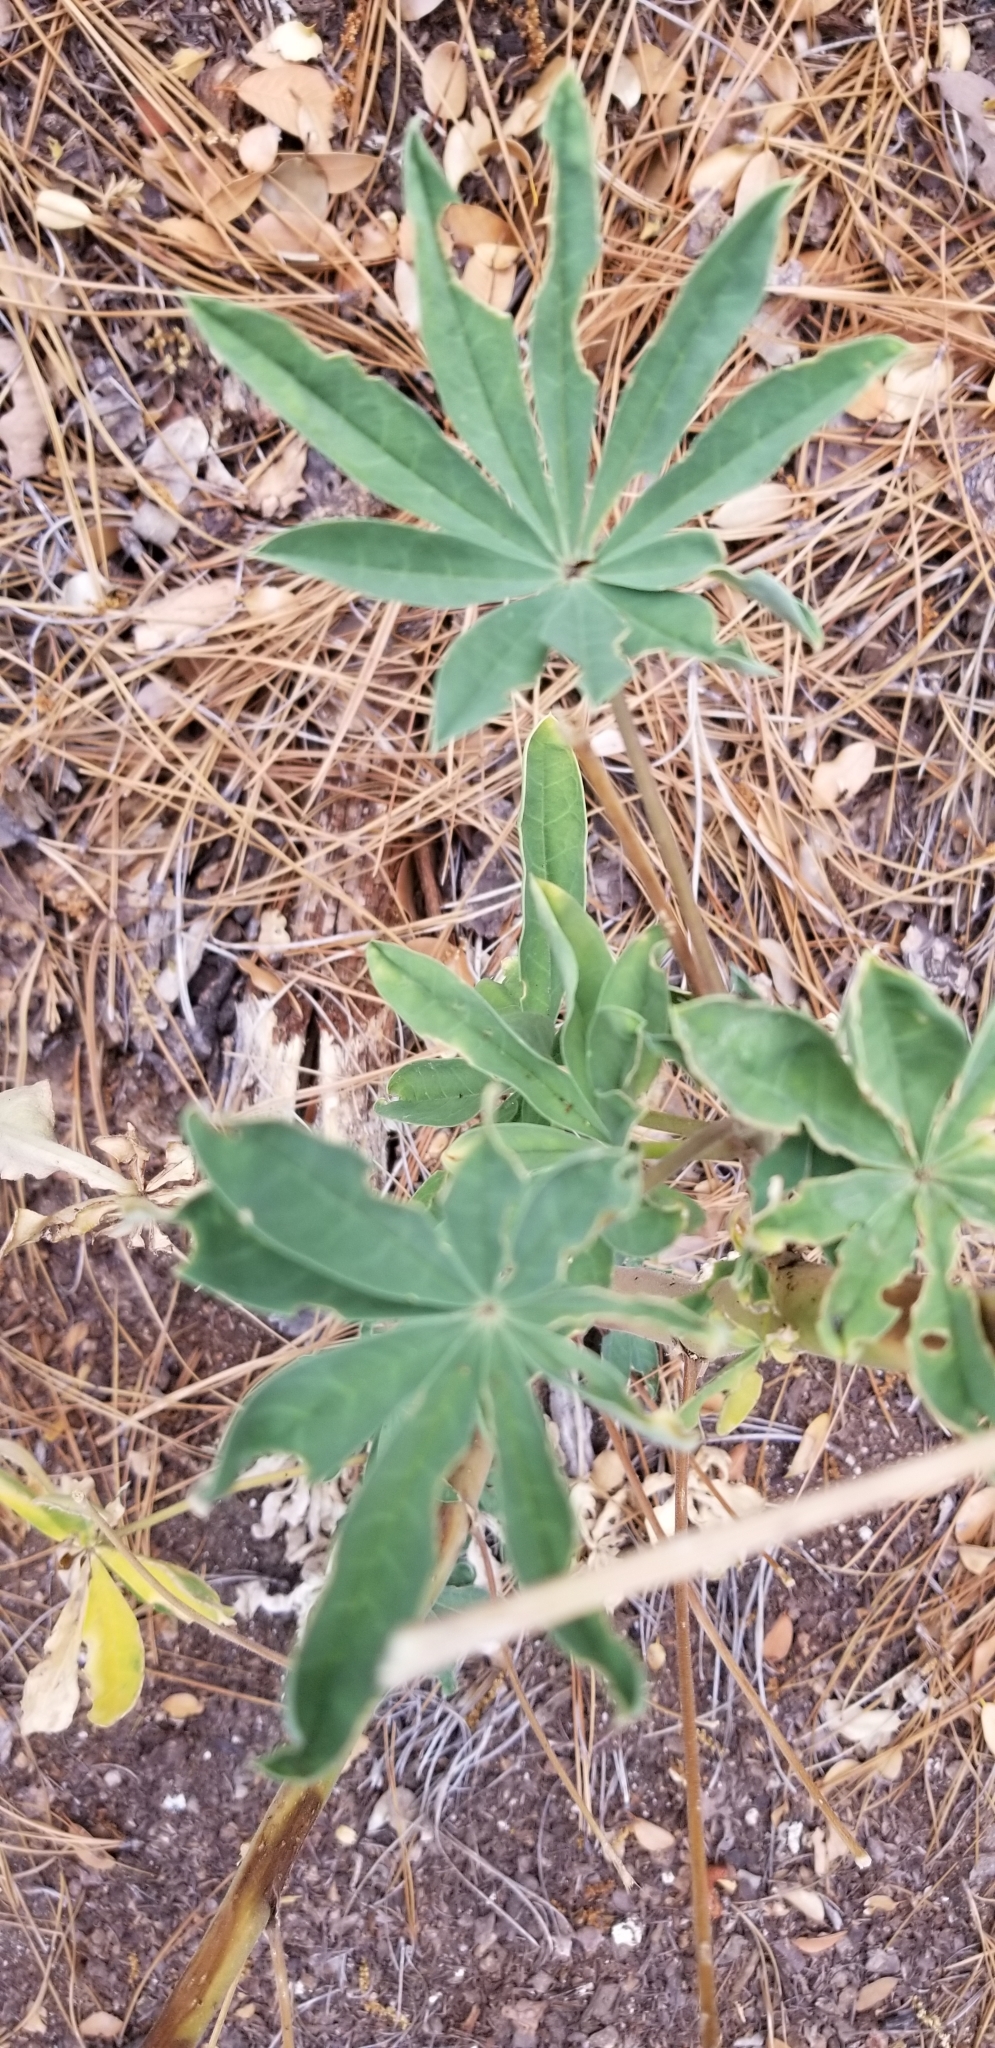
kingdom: Plantae
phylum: Tracheophyta
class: Magnoliopsida
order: Fabales
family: Fabaceae
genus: Lupinus
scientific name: Lupinus latifolius
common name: Broad-leaved lupine
